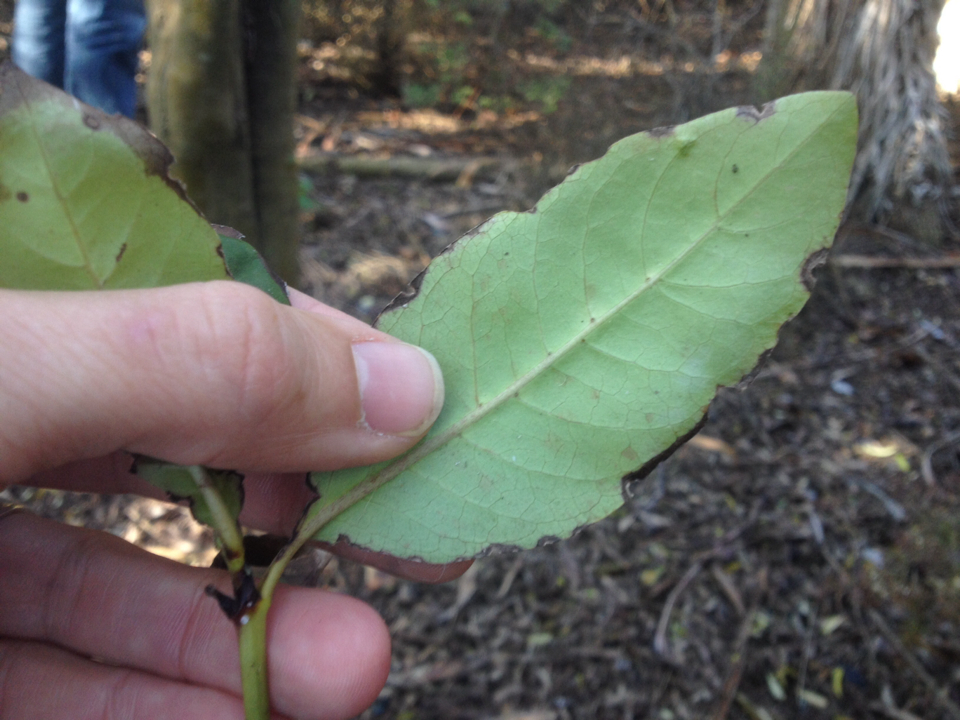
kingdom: Plantae
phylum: Tracheophyta
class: Magnoliopsida
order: Gentianales
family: Rubiaceae
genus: Coprosma
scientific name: Coprosma robusta
